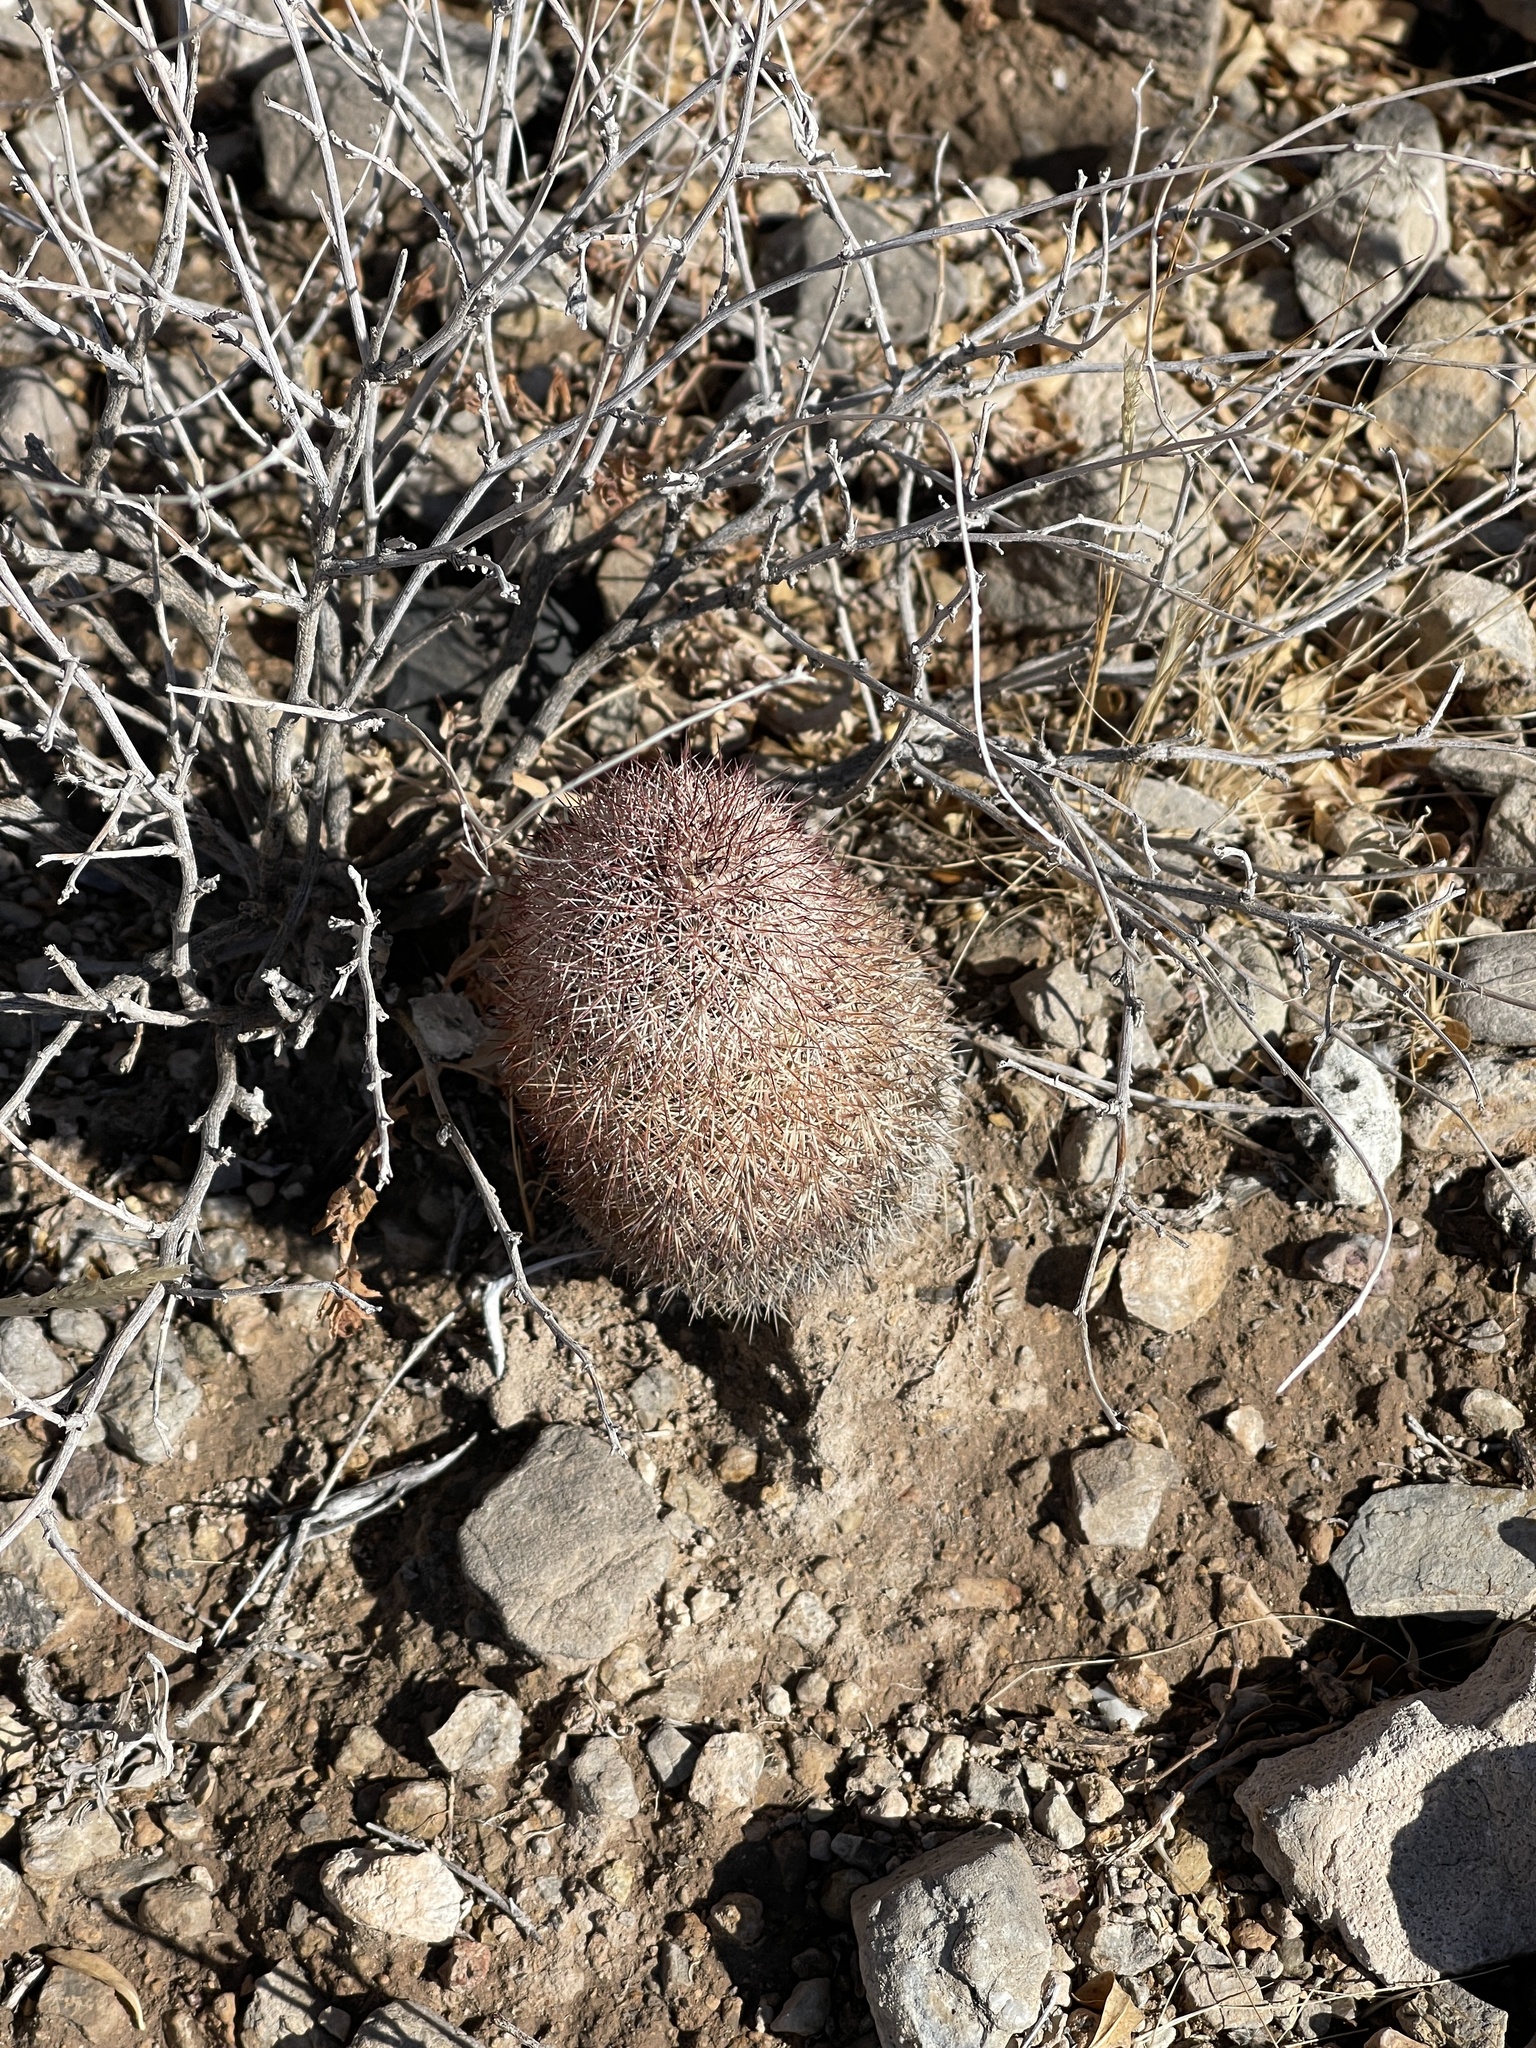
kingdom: Plantae
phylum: Tracheophyta
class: Magnoliopsida
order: Caryophyllales
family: Cactaceae
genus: Echinocereus
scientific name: Echinocereus dasyacanthus
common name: Spiny hedgehog cactus
